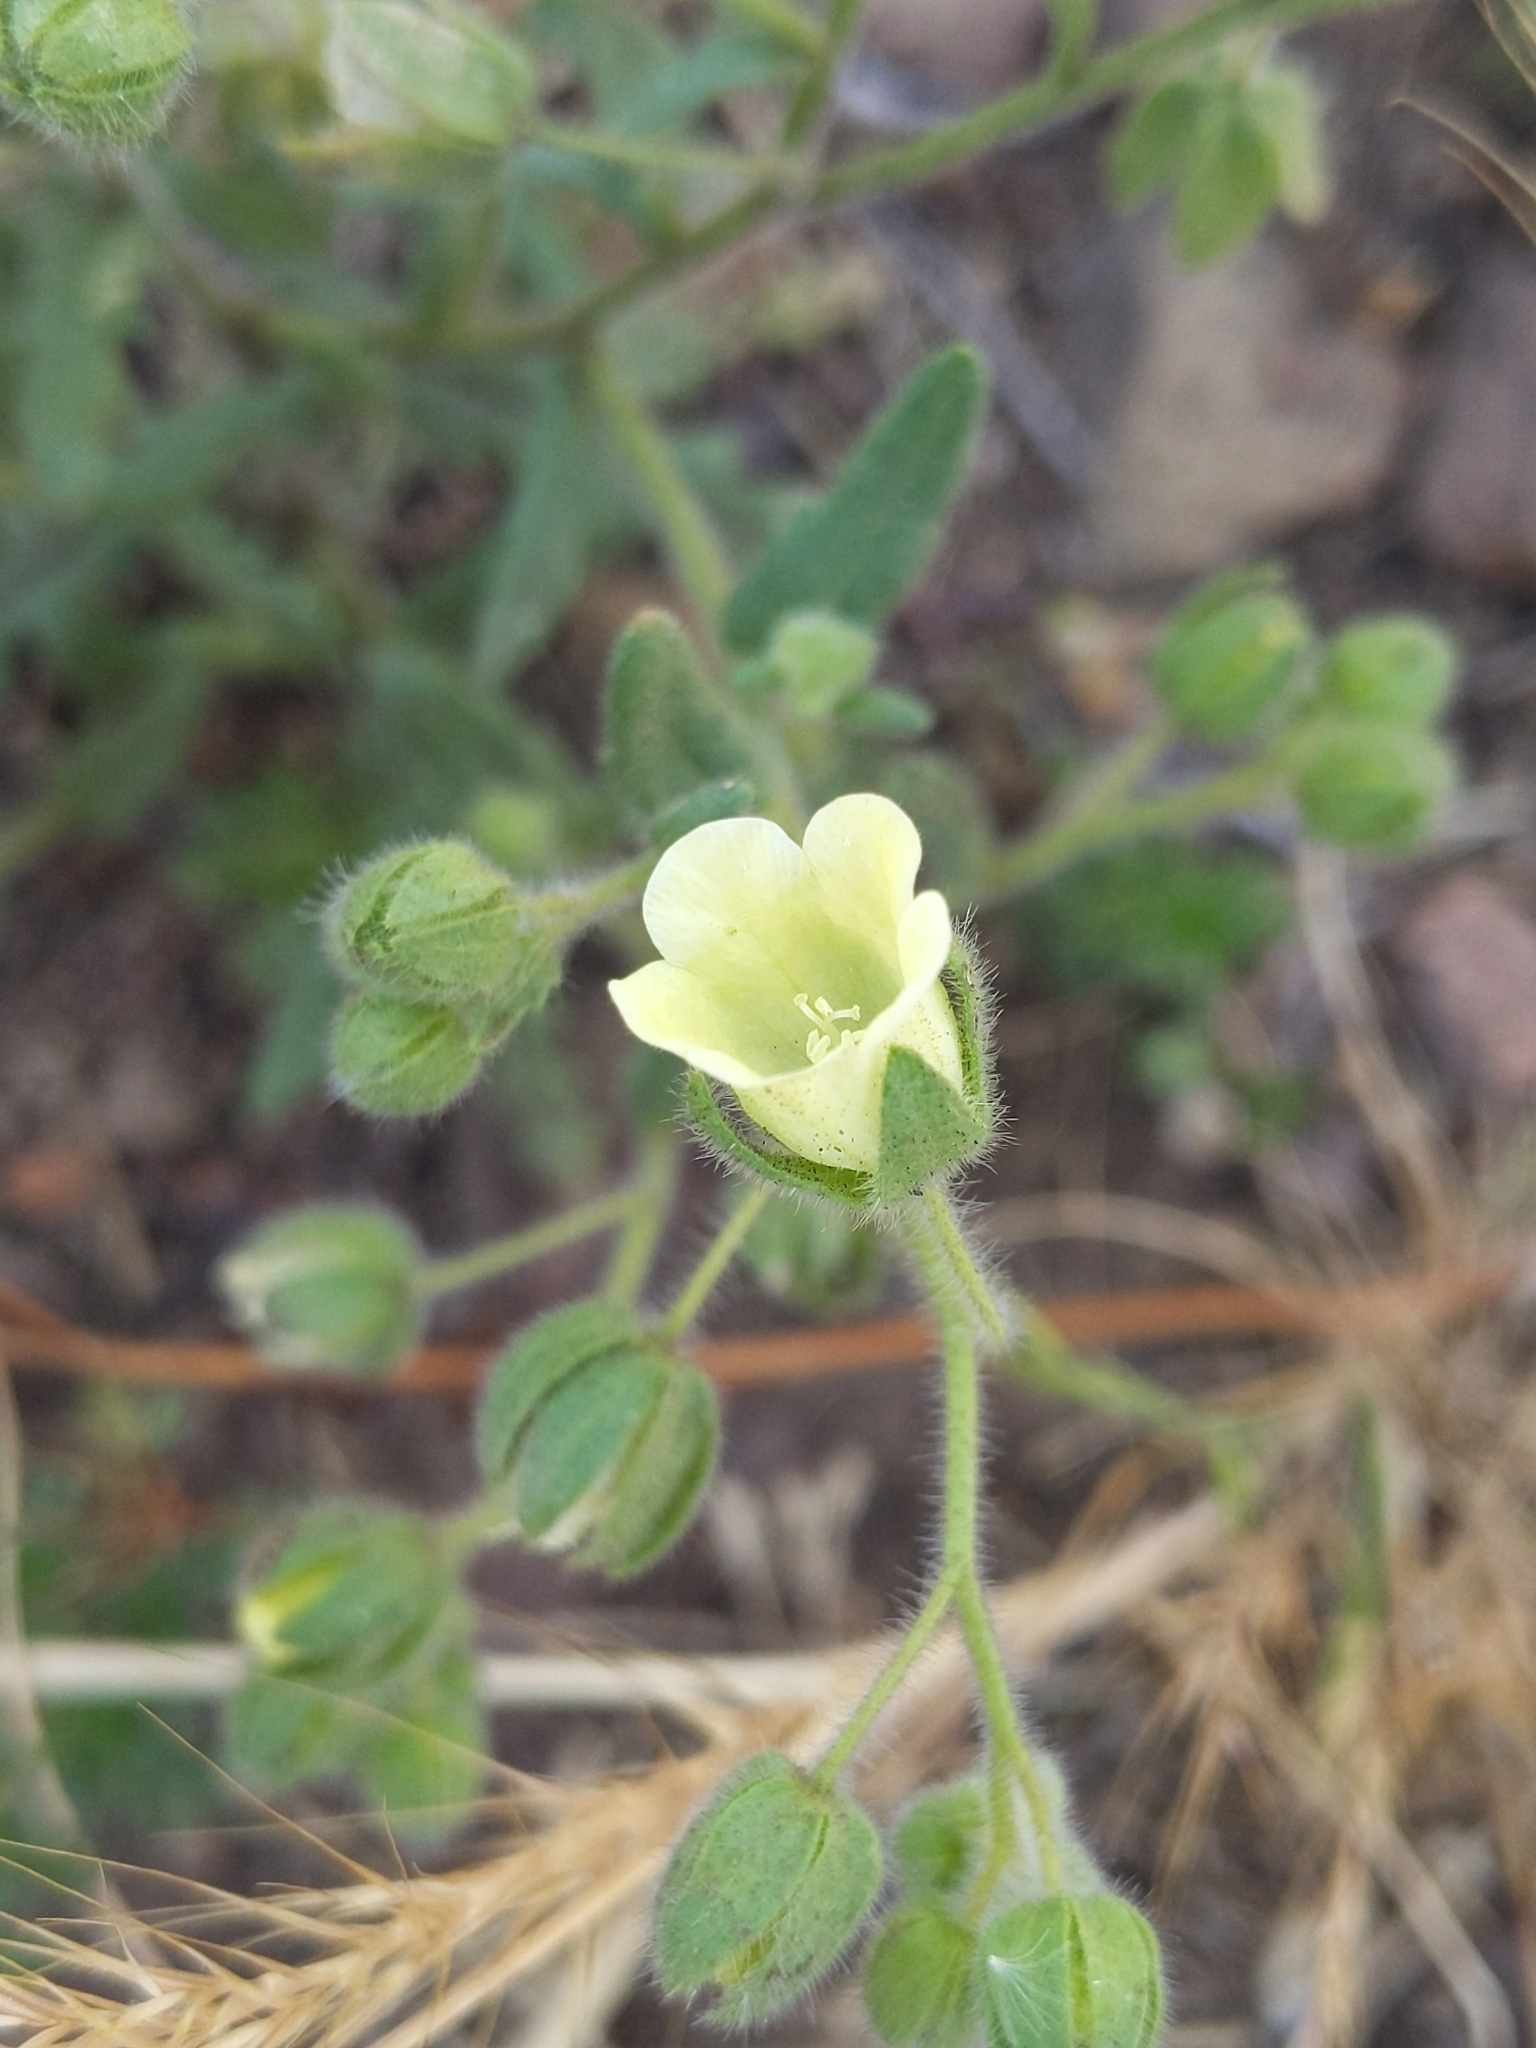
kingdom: Plantae
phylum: Tracheophyta
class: Magnoliopsida
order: Boraginales
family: Hydrophyllaceae
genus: Emmenanthe
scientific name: Emmenanthe penduliflora
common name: Whispering-bells
